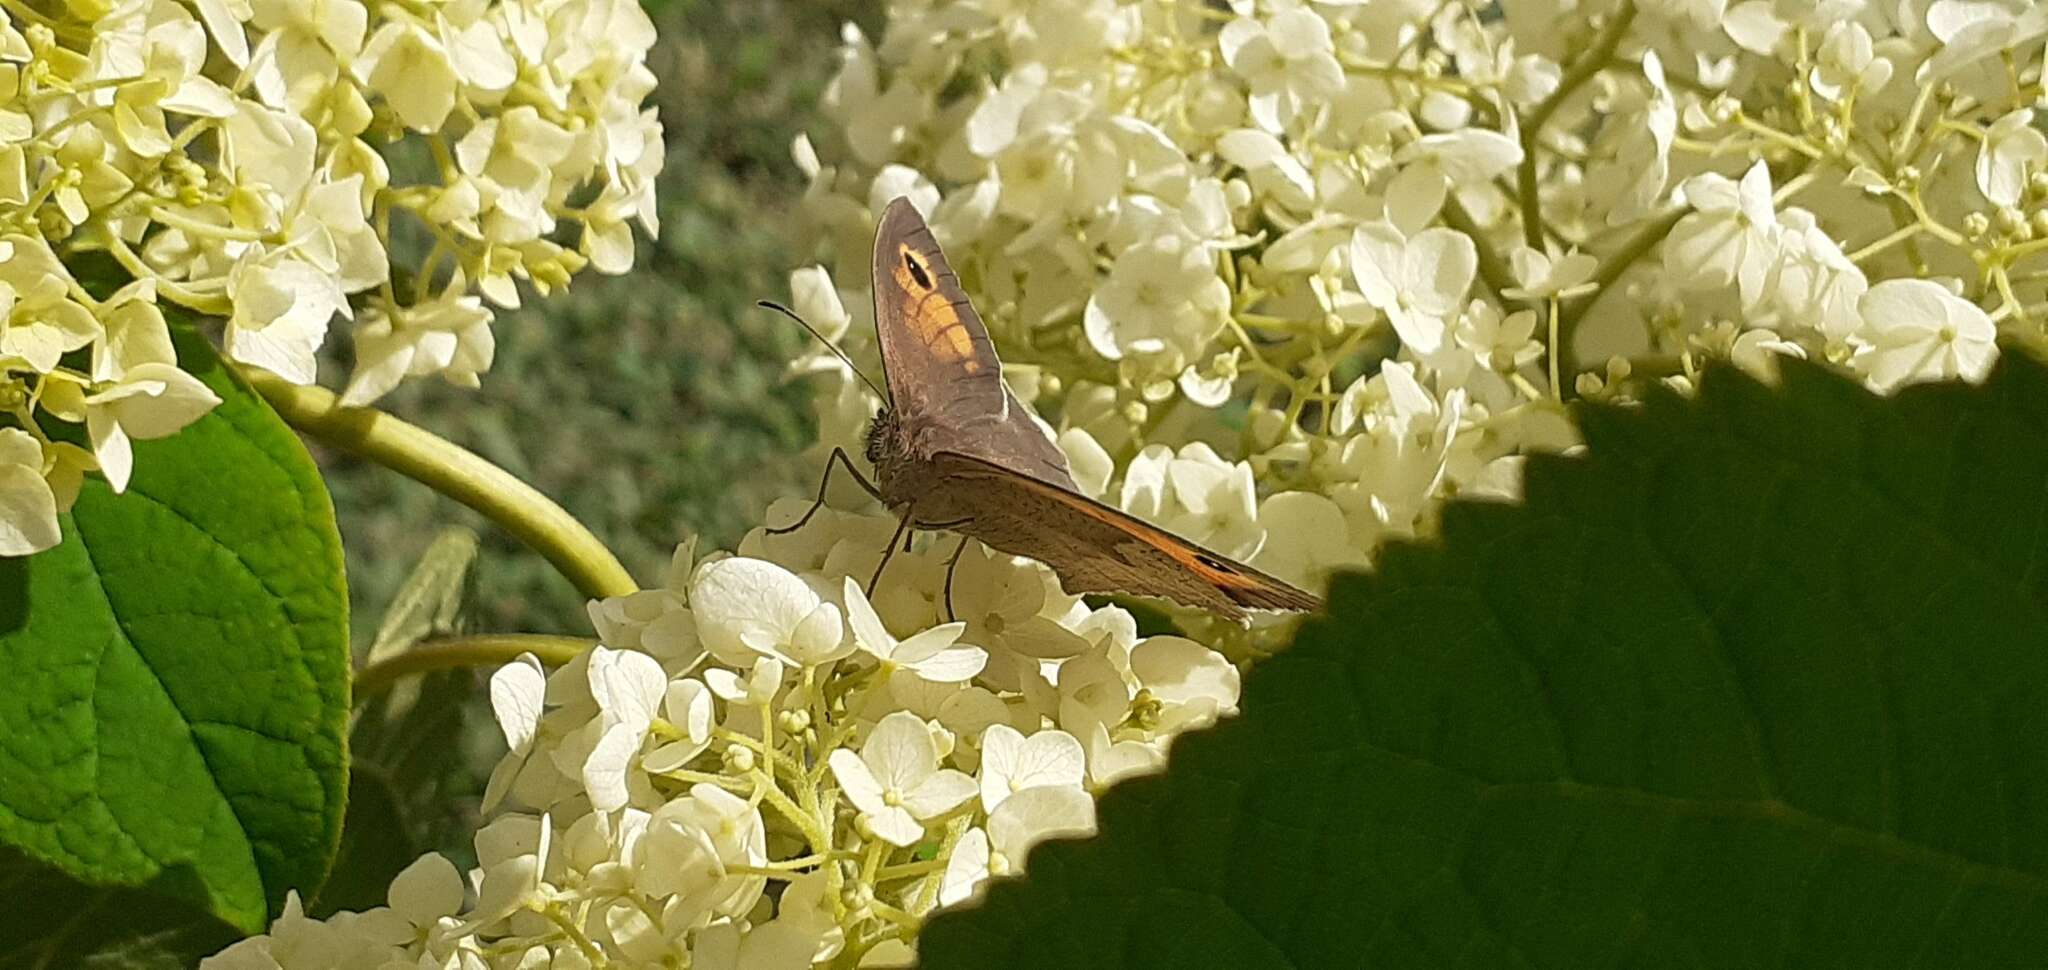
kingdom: Animalia
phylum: Arthropoda
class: Insecta
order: Lepidoptera
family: Nymphalidae
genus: Maniola
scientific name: Maniola jurtina
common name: Meadow brown
